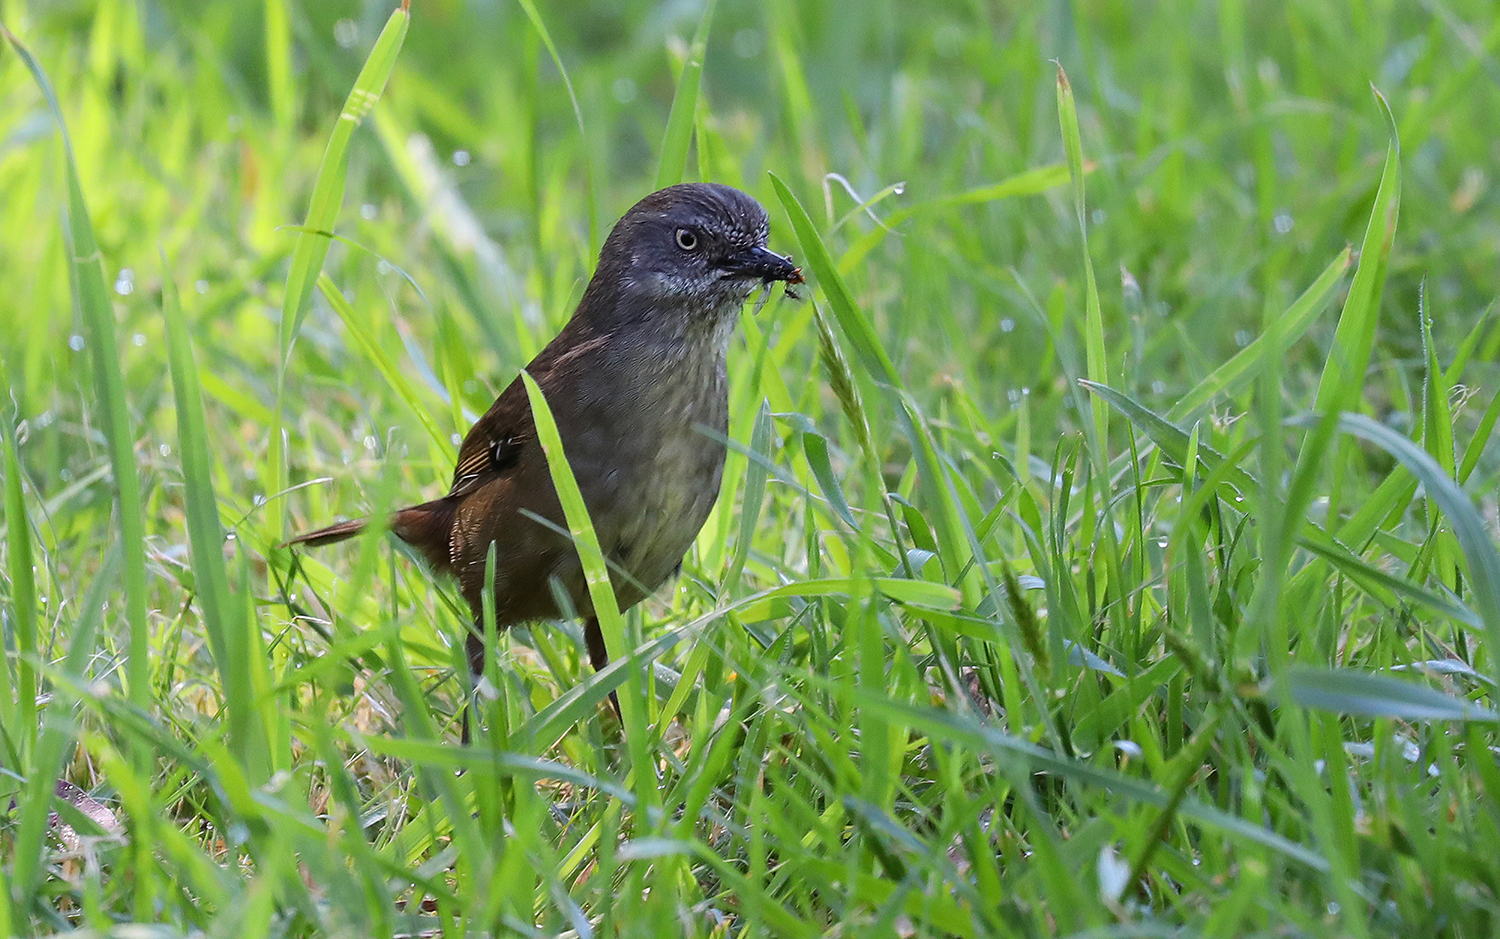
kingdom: Animalia
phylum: Chordata
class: Aves
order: Passeriformes
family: Acanthizidae
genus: Sericornis
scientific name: Sericornis humilis
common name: Tasmanian scrubwren
